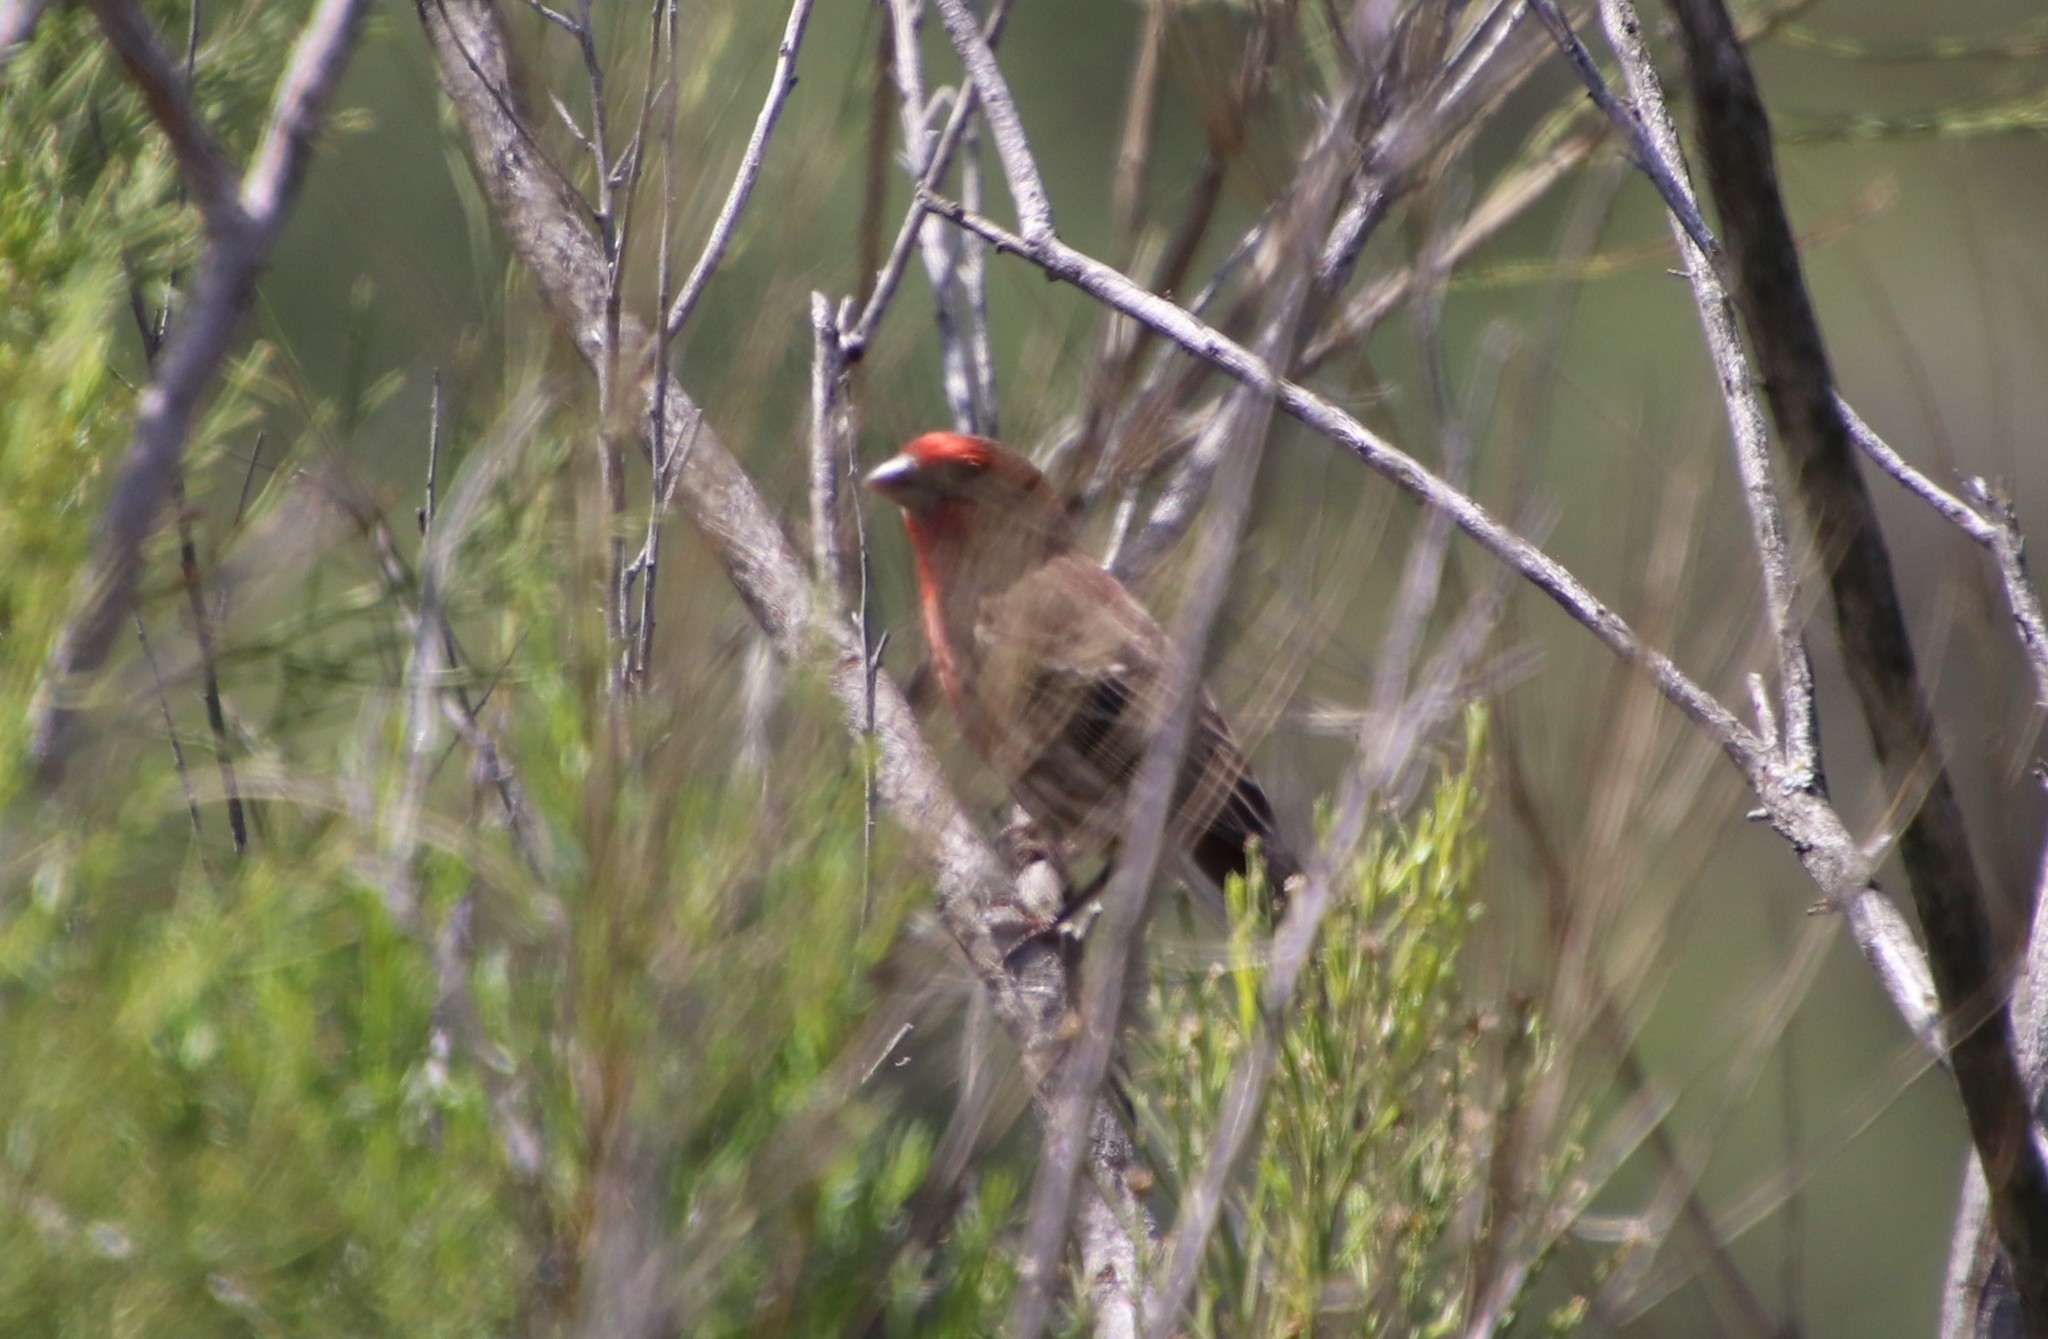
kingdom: Animalia
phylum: Chordata
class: Aves
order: Passeriformes
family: Fringillidae
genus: Haemorhous
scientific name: Haemorhous mexicanus
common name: House finch
